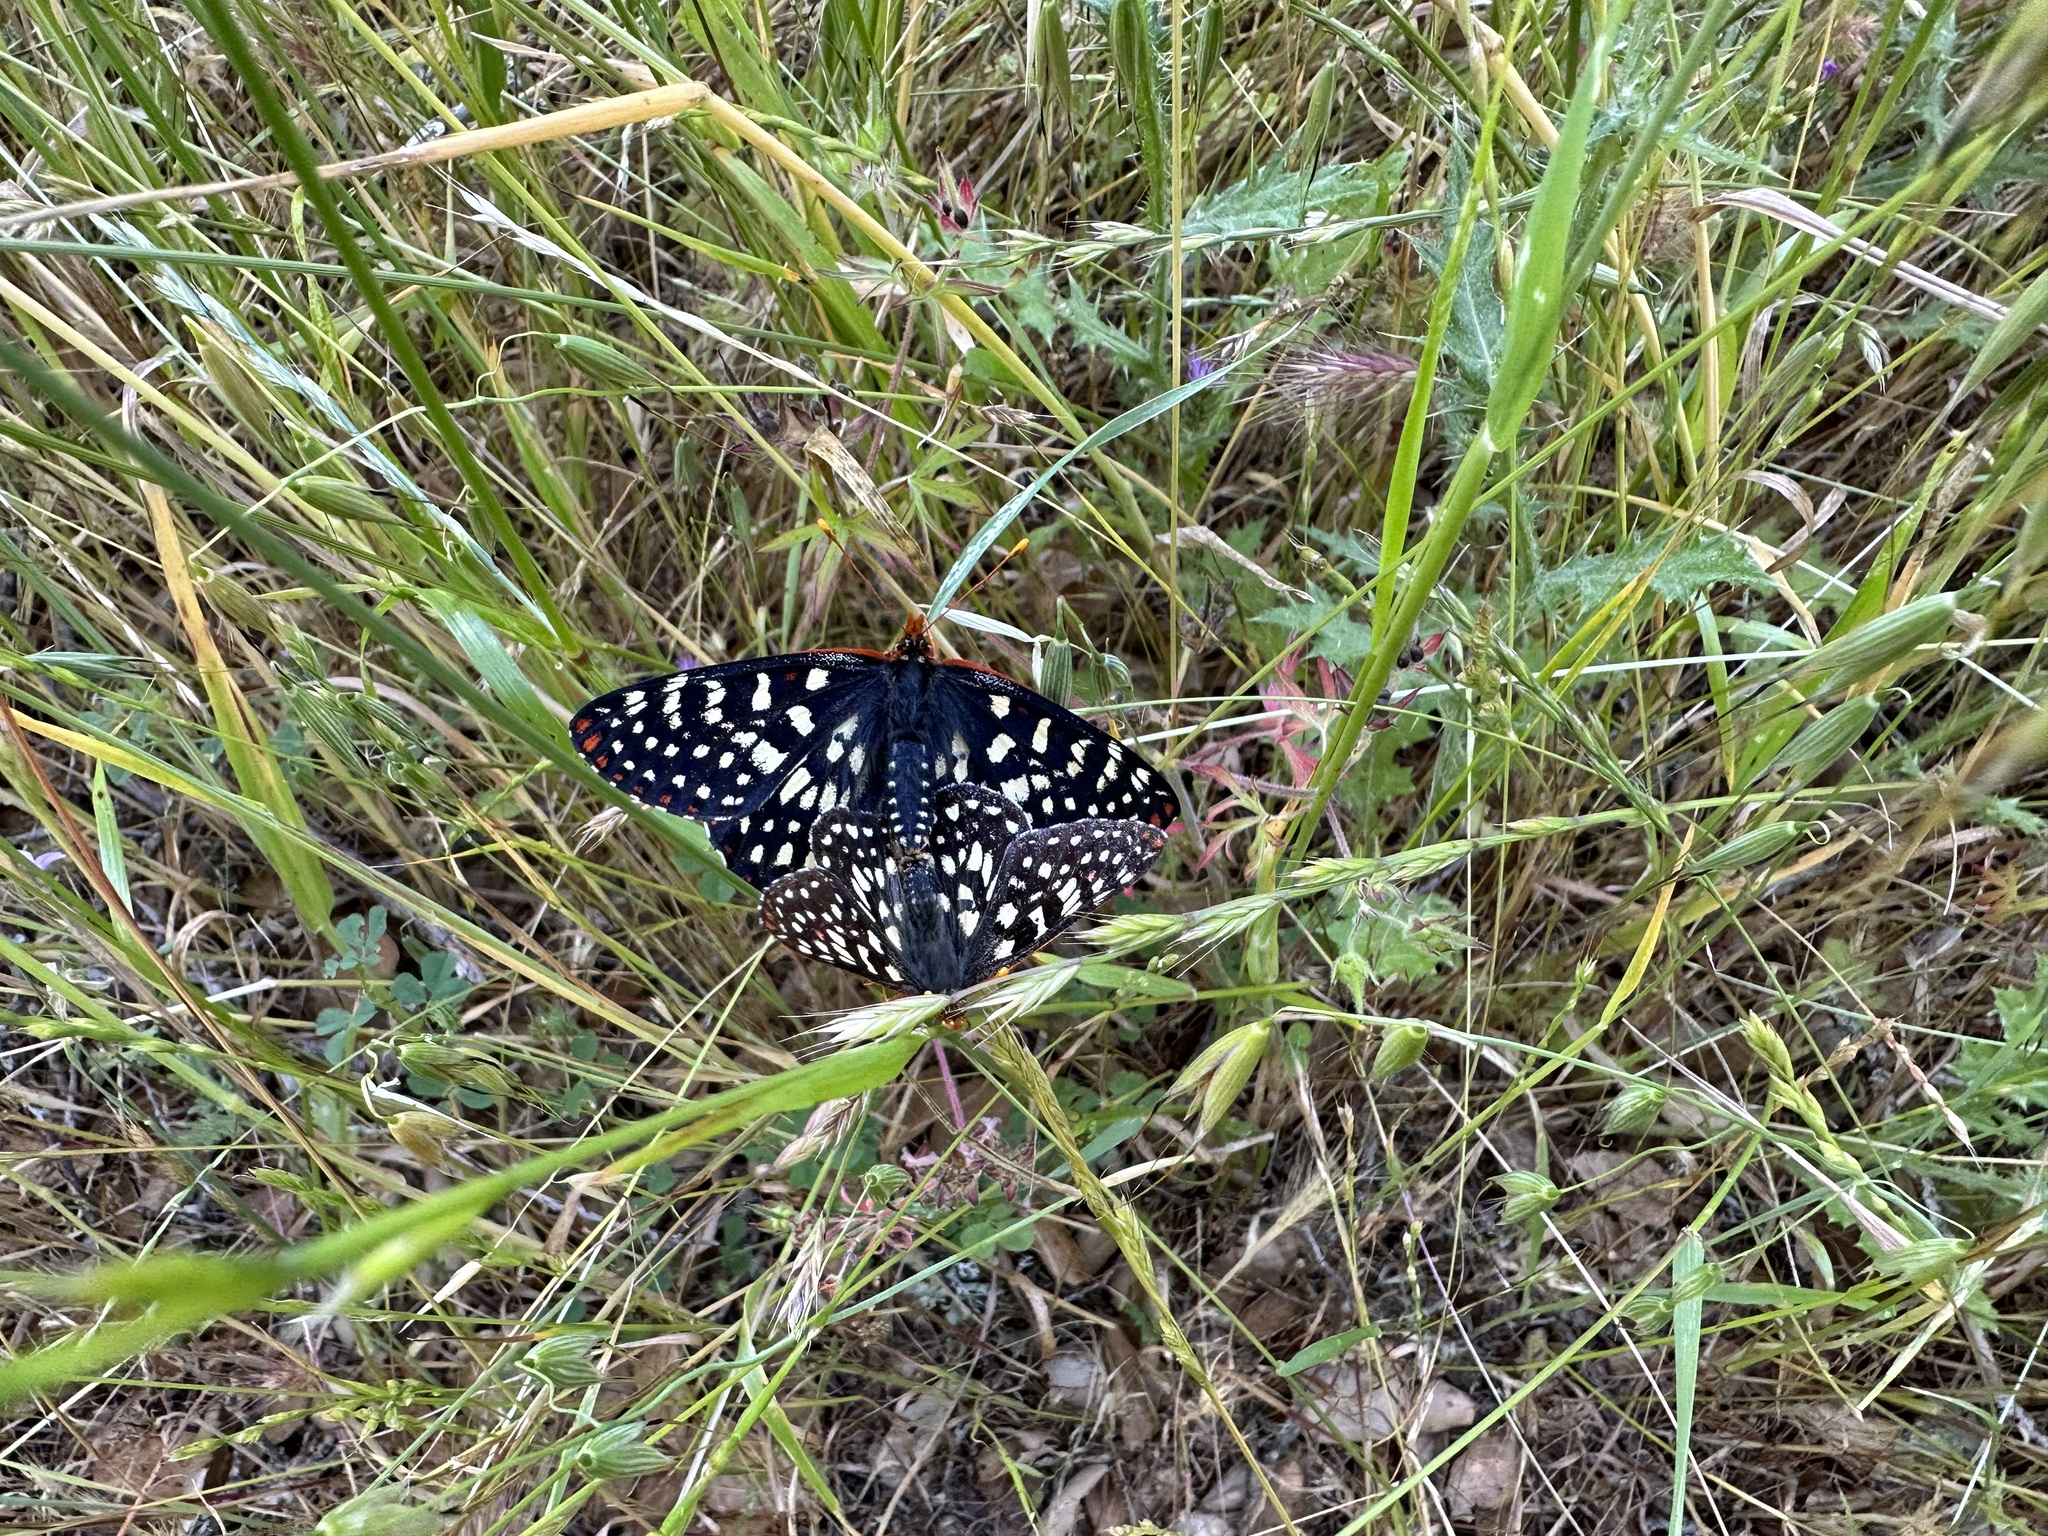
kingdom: Animalia
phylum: Arthropoda
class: Insecta
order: Lepidoptera
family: Nymphalidae
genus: Occidryas
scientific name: Occidryas chalcedona
